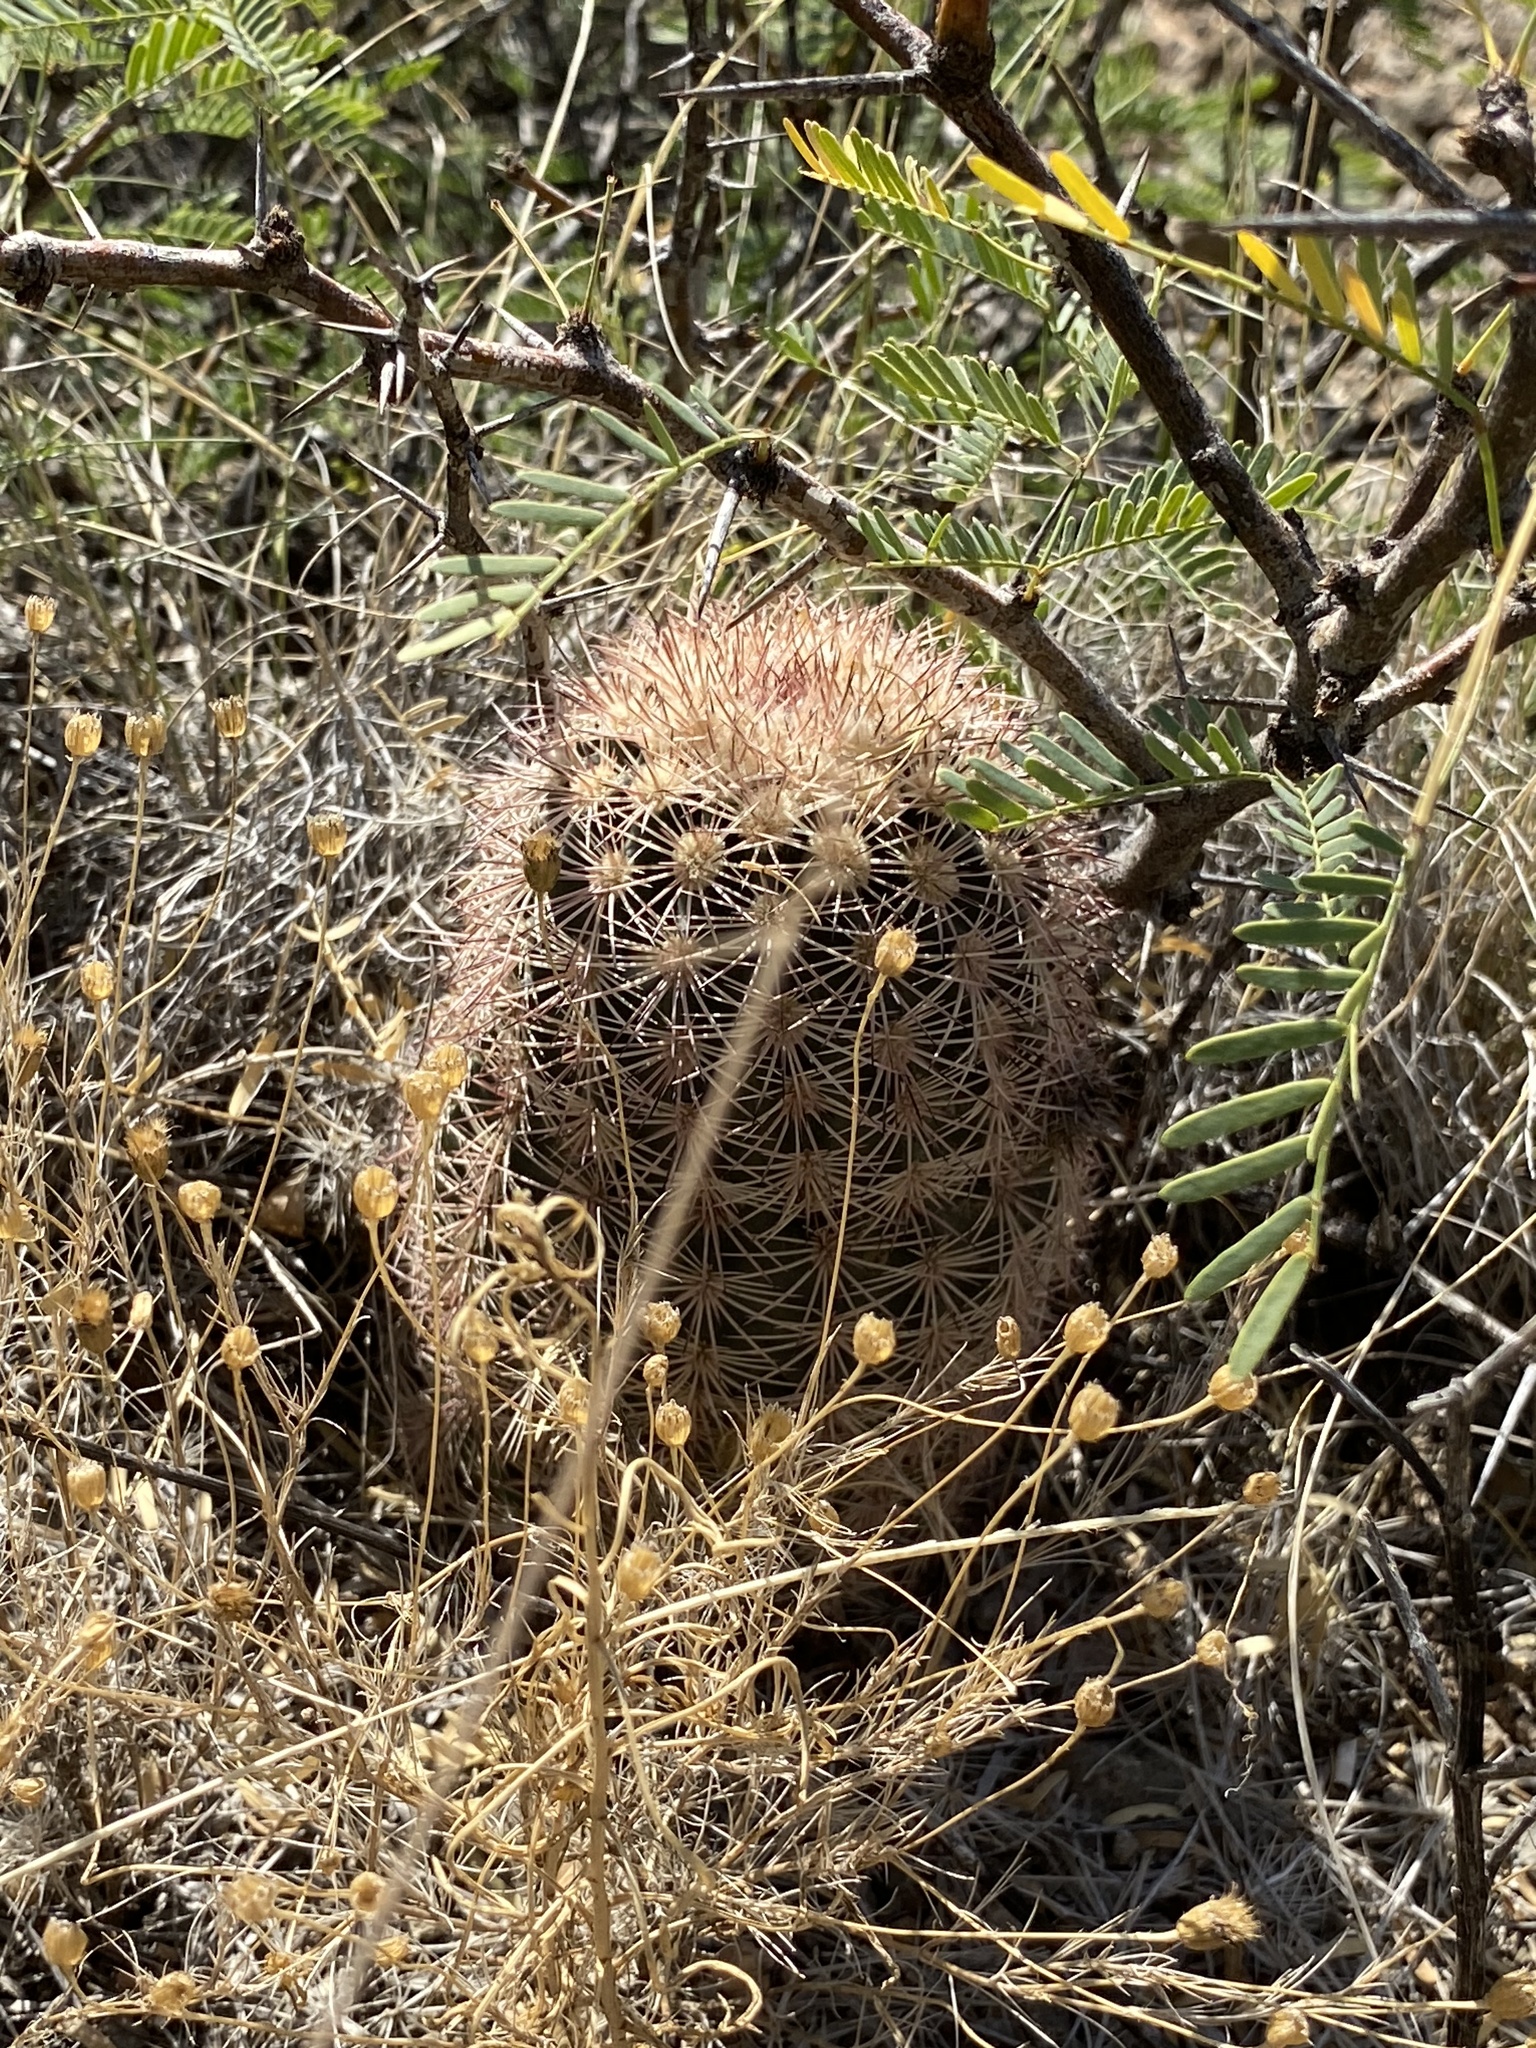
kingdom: Plantae
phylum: Tracheophyta
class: Magnoliopsida
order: Caryophyllales
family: Cactaceae
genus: Echinocereus
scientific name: Echinocereus dasyacanthus
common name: Spiny hedgehog cactus
